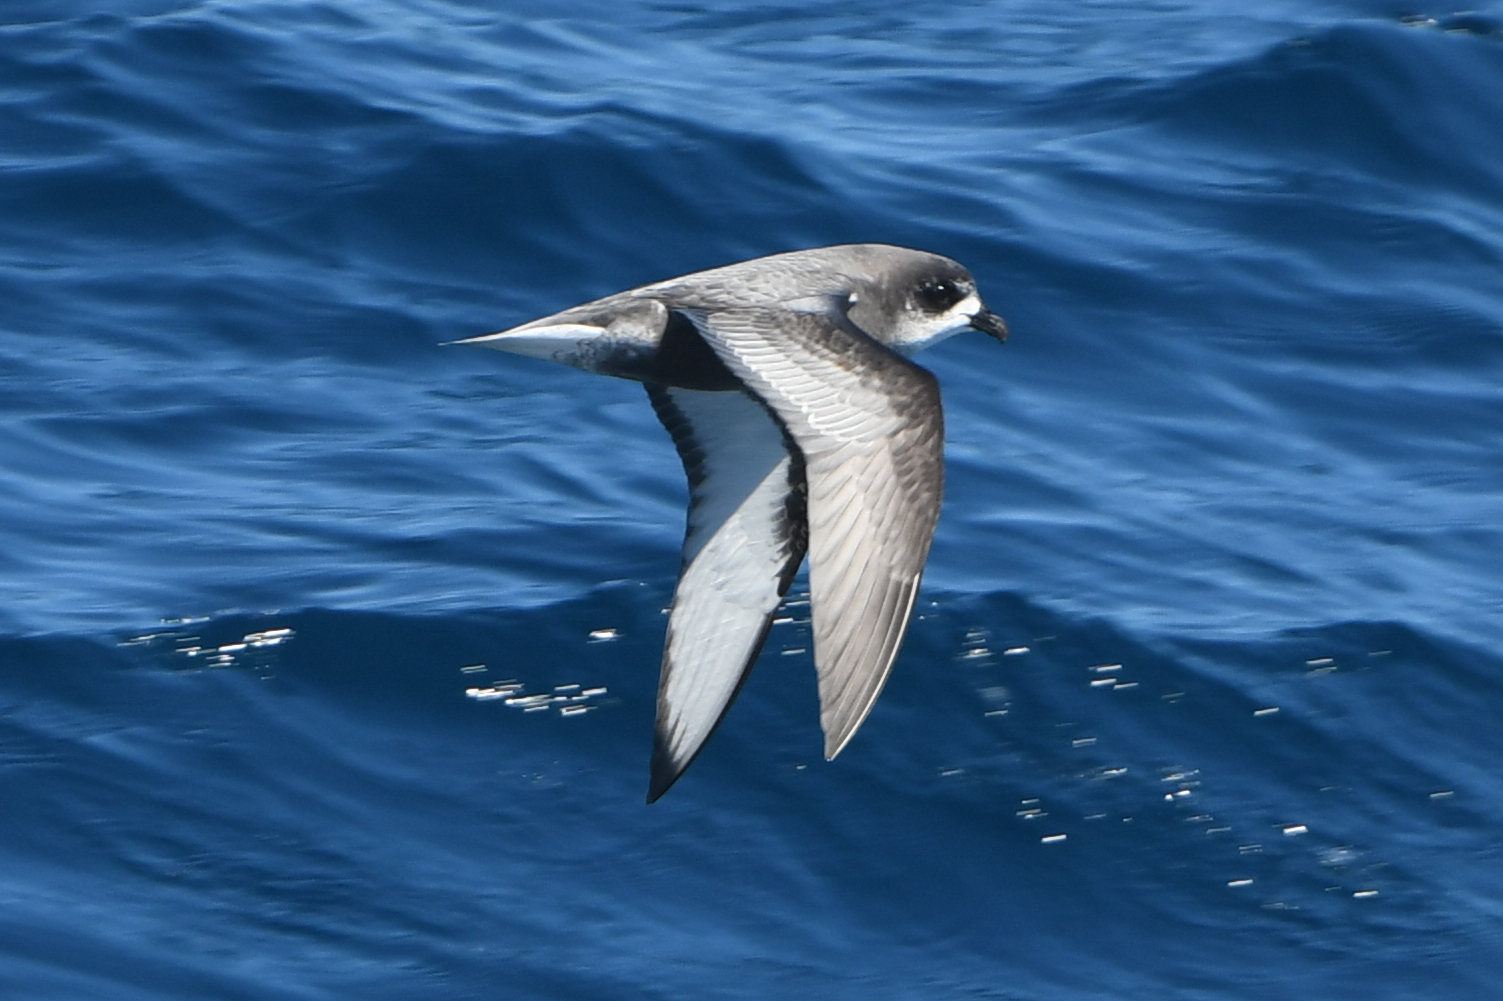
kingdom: Animalia
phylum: Chordata
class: Aves
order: Procellariiformes
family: Procellariidae
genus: Pterodroma
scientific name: Pterodroma inexpectata
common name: Mottled petrel
